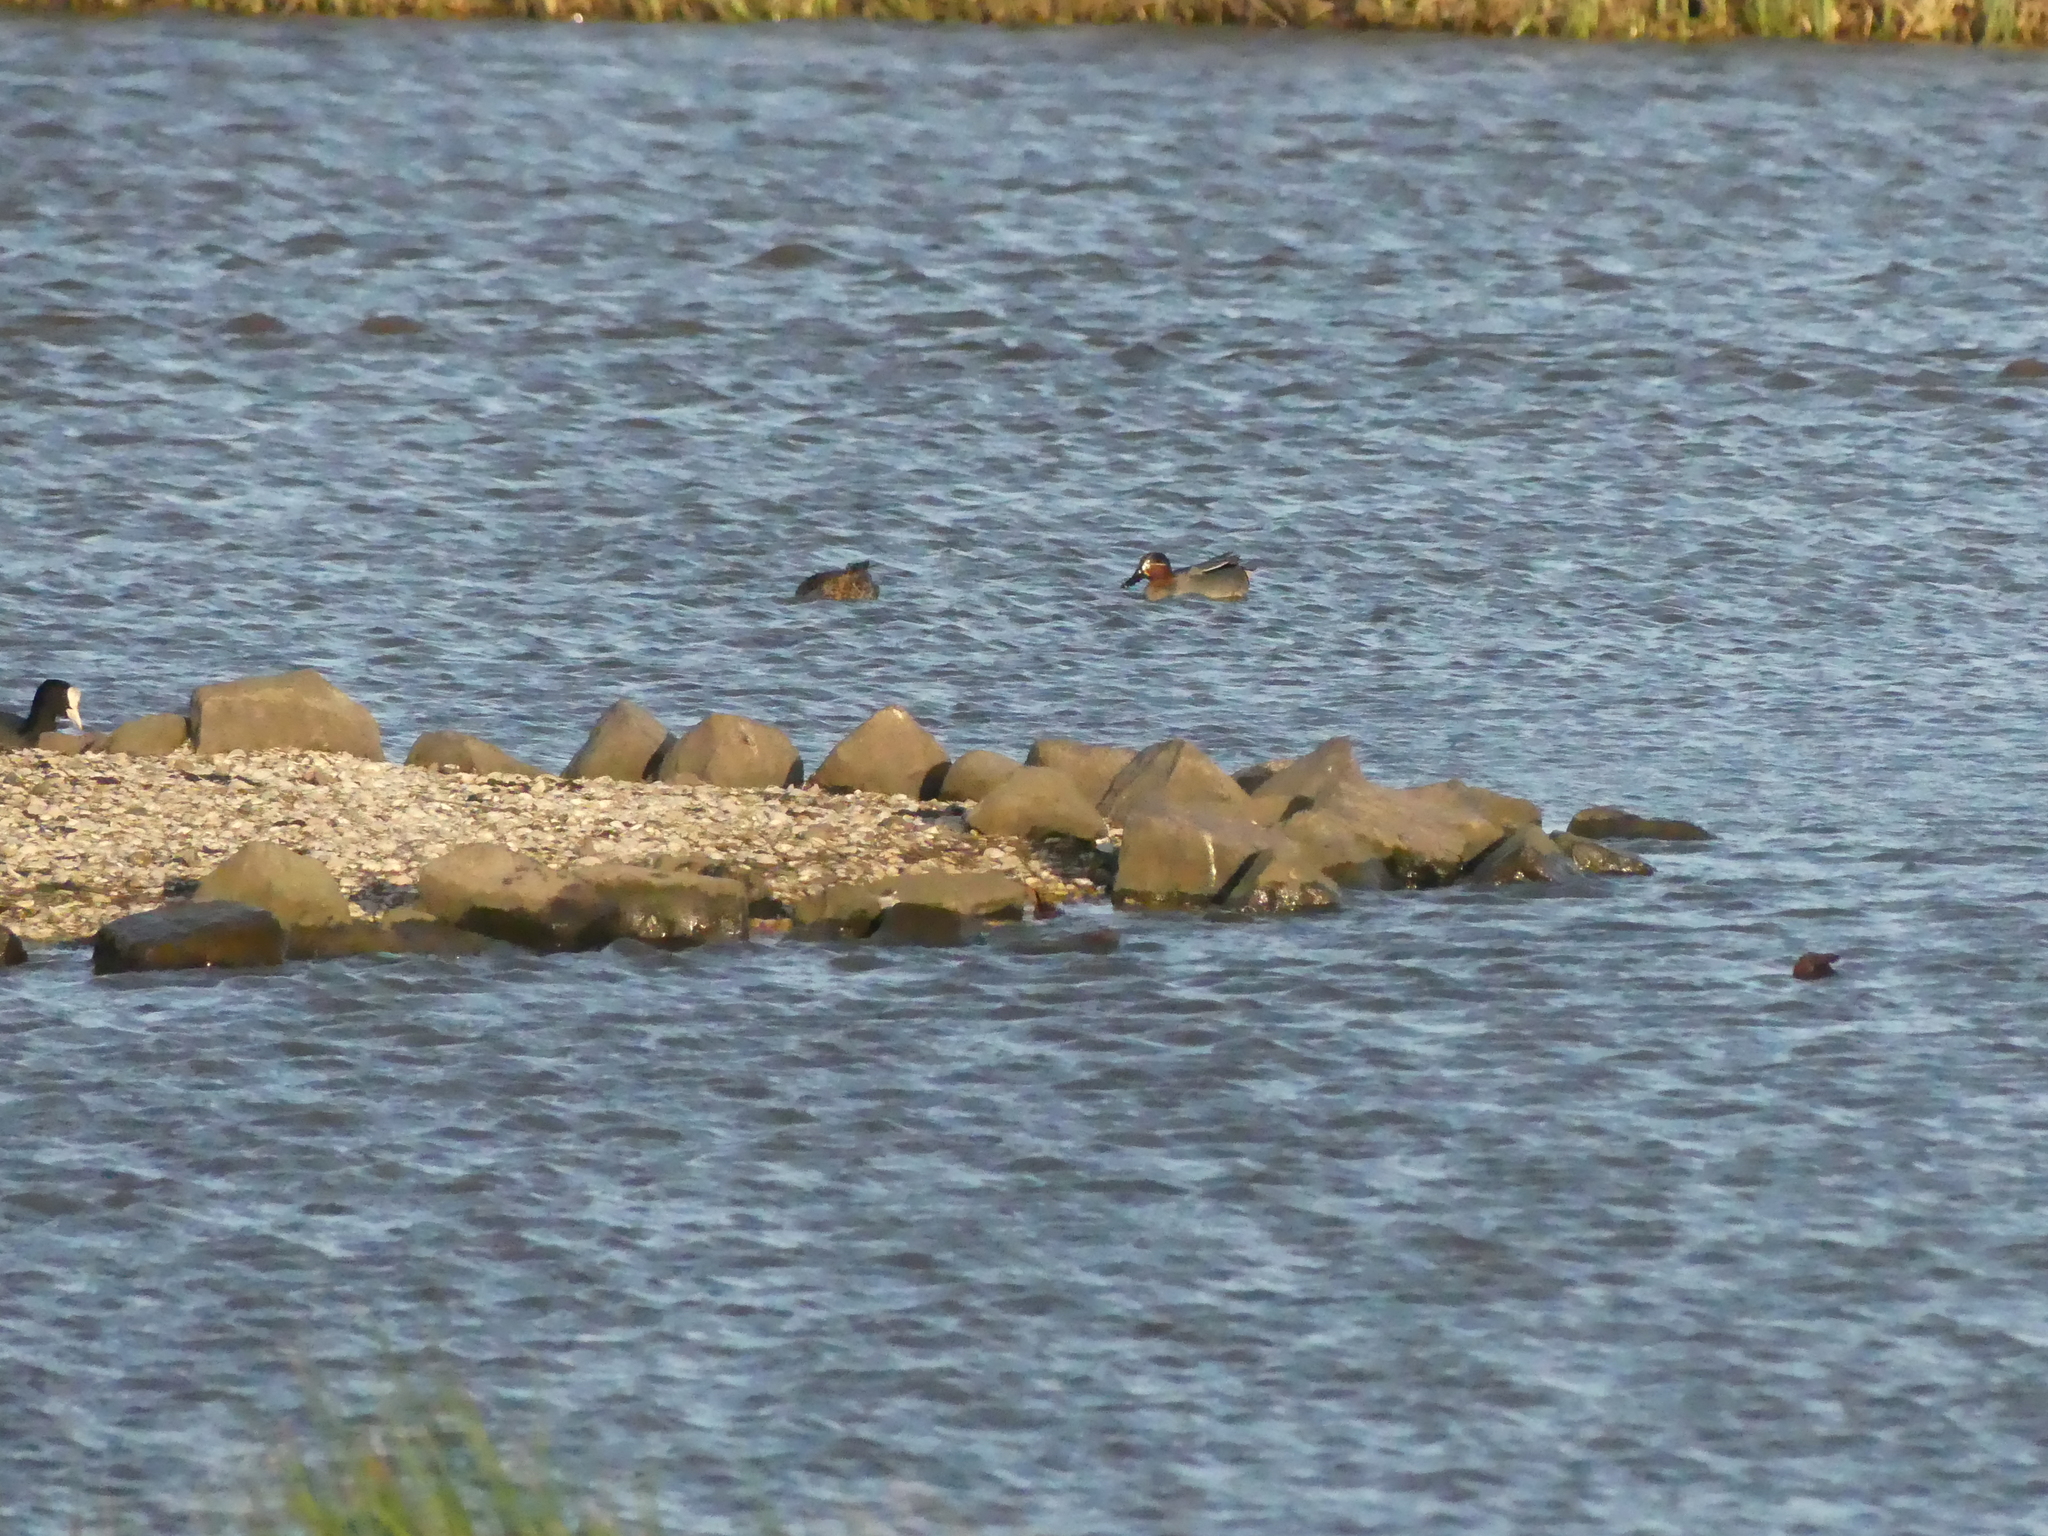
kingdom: Animalia
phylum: Chordata
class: Aves
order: Anseriformes
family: Anatidae
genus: Anas
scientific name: Anas crecca
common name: Eurasian teal
